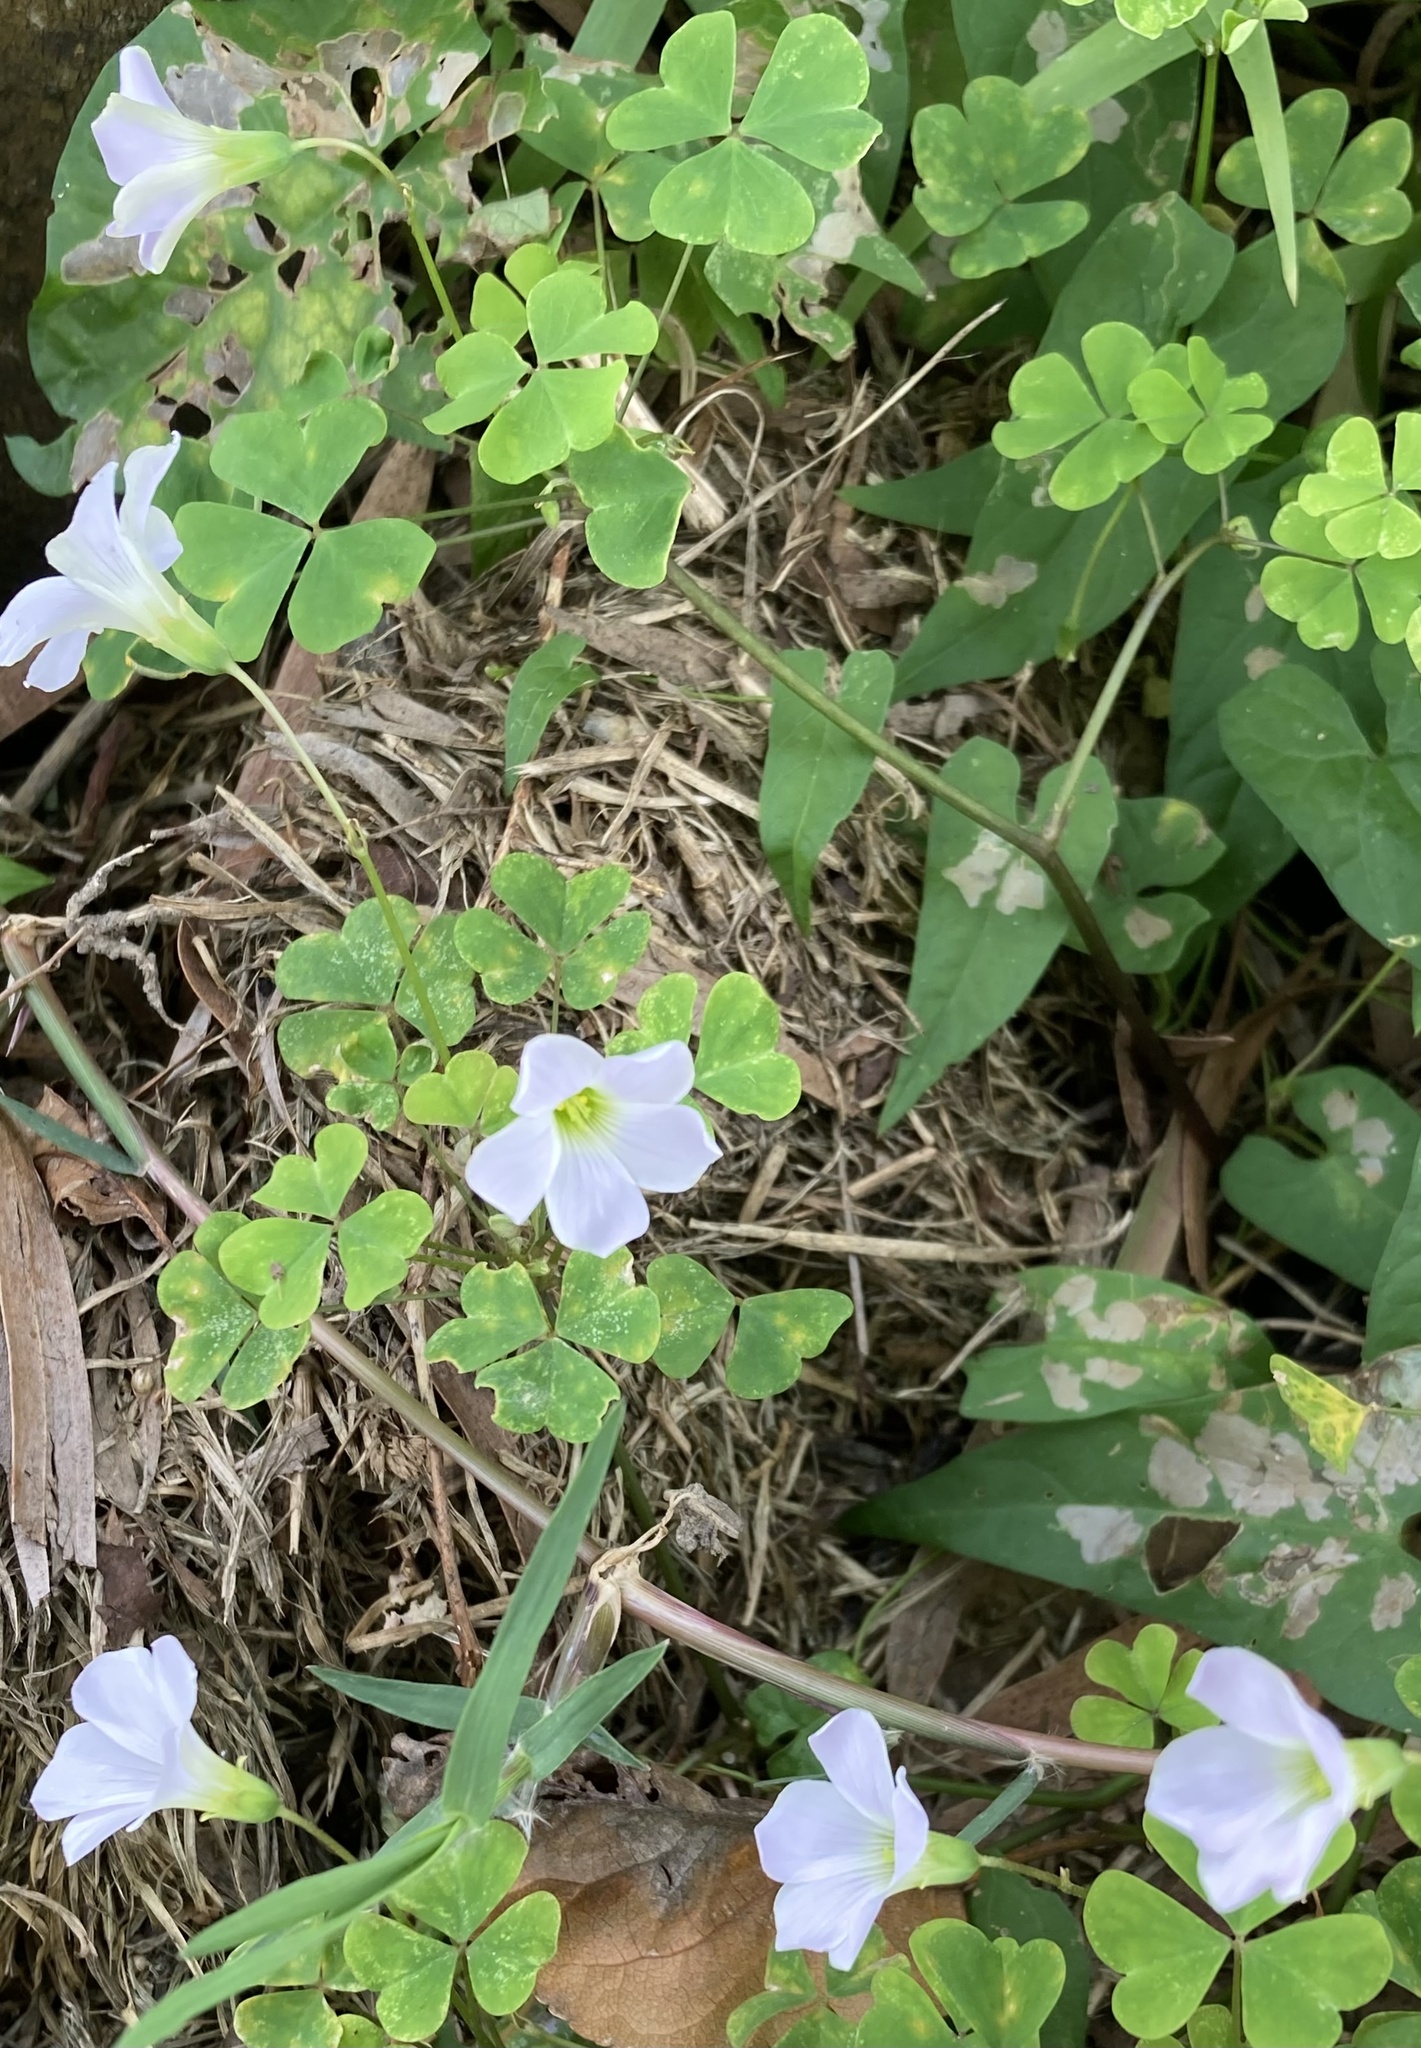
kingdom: Plantae
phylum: Tracheophyta
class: Magnoliopsida
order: Oxalidales
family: Oxalidaceae
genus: Oxalis
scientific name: Oxalis incarnata
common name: Pale pink-sorrel
